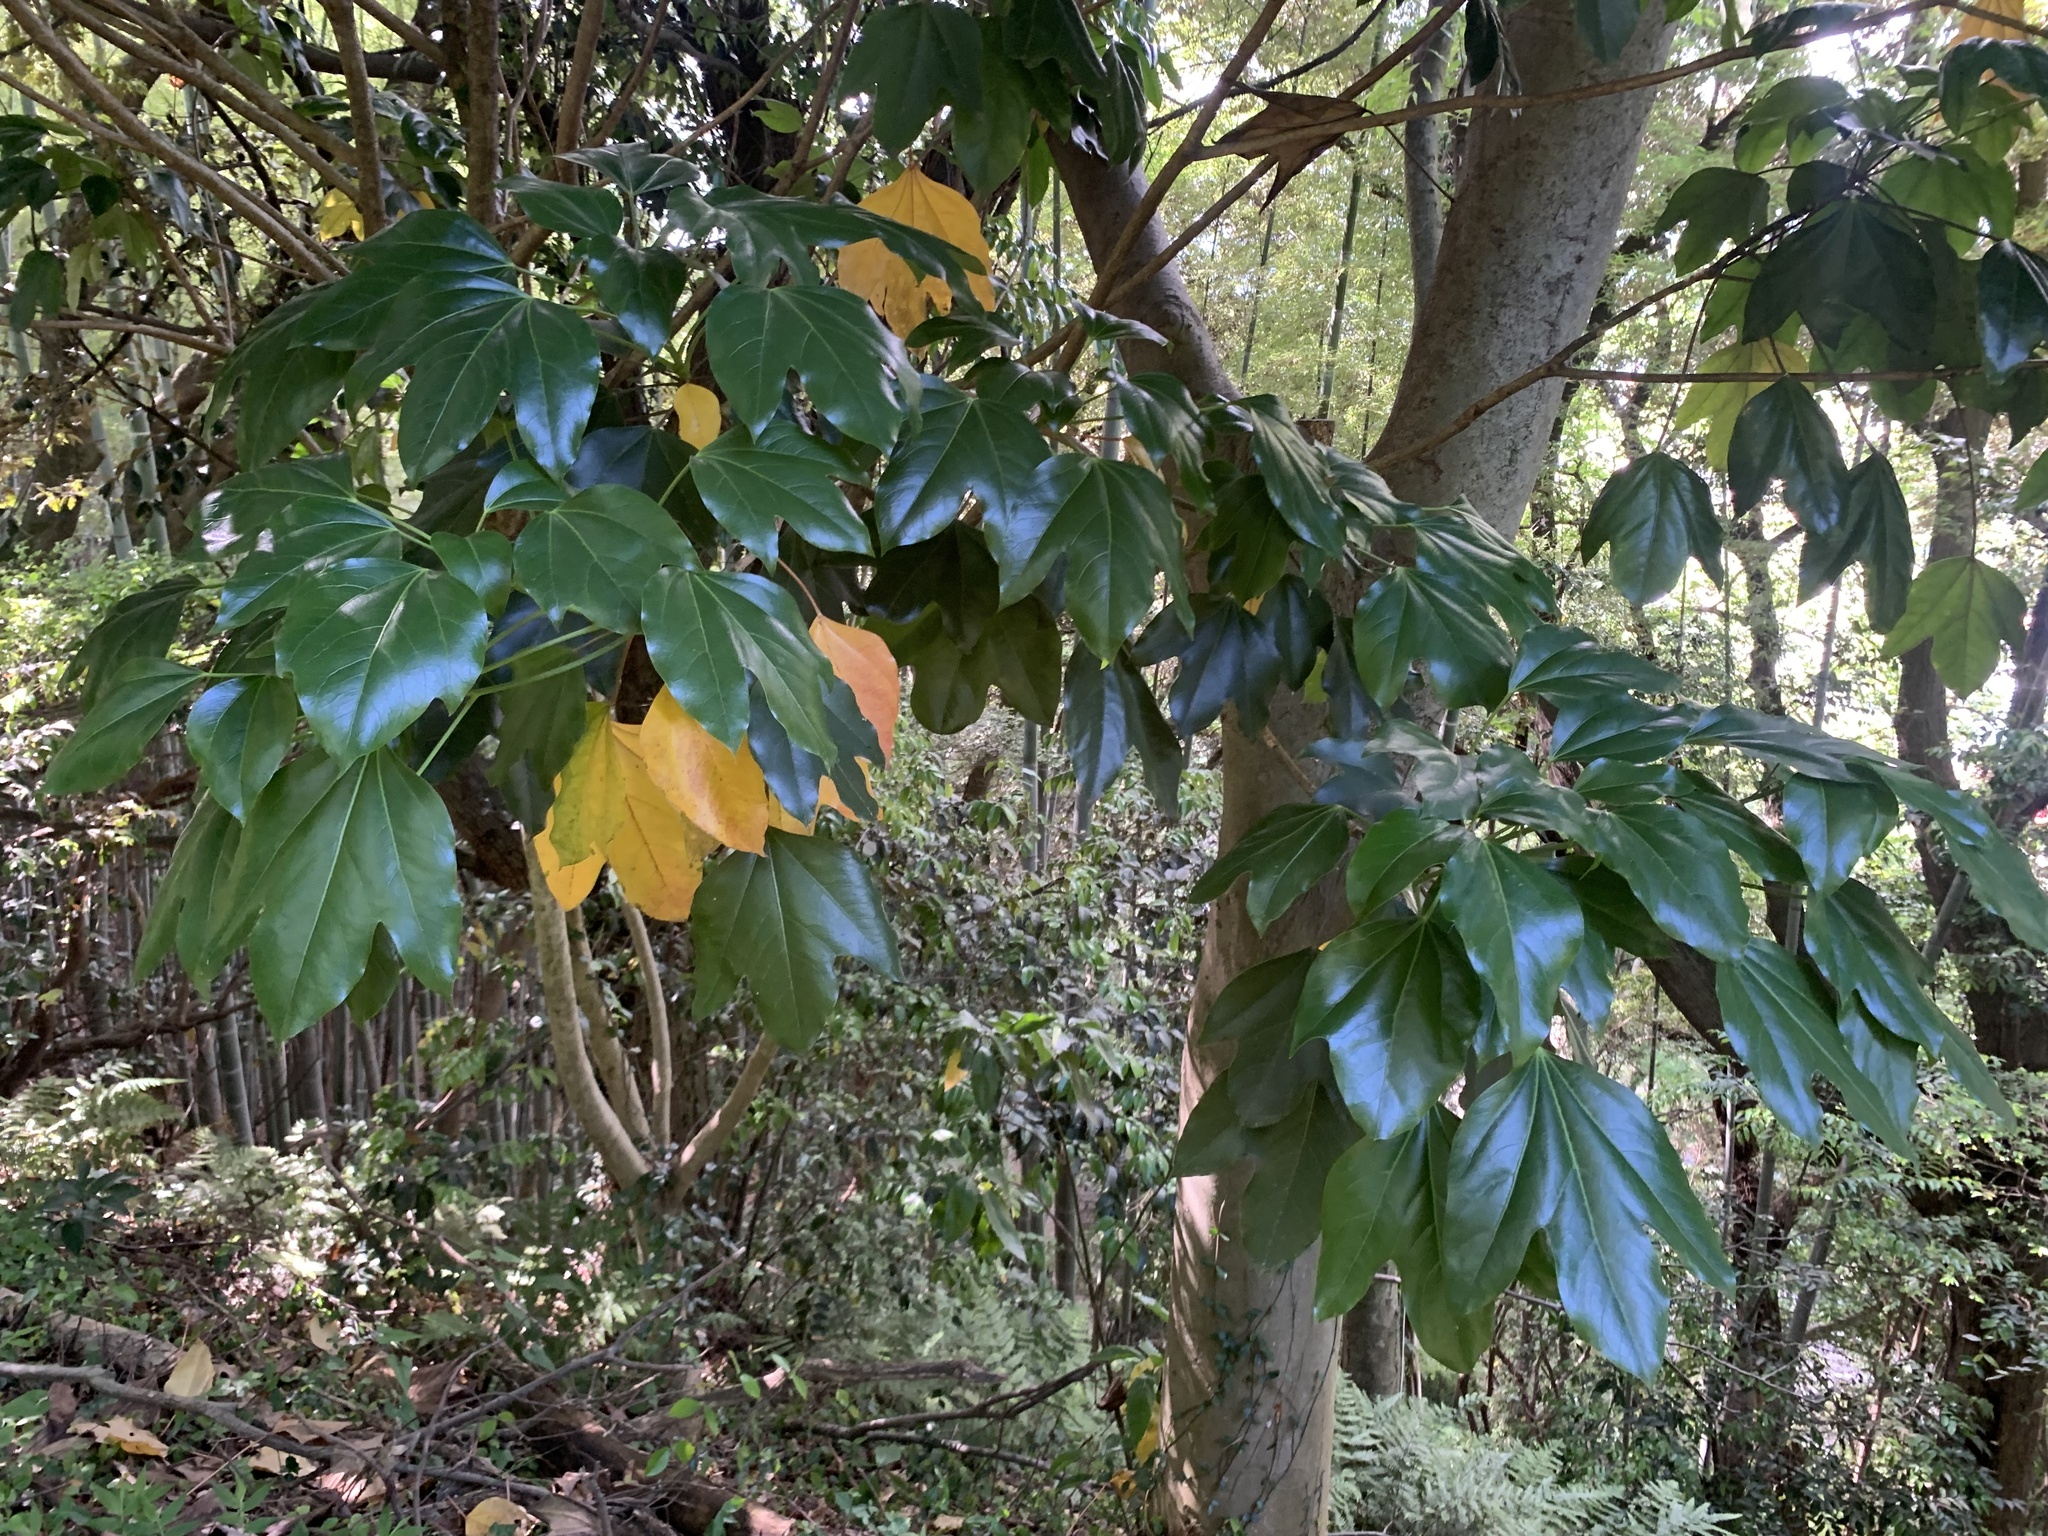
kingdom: Plantae
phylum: Tracheophyta
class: Magnoliopsida
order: Apiales
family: Araliaceae
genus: Dendropanax
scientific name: Dendropanax trifidus
